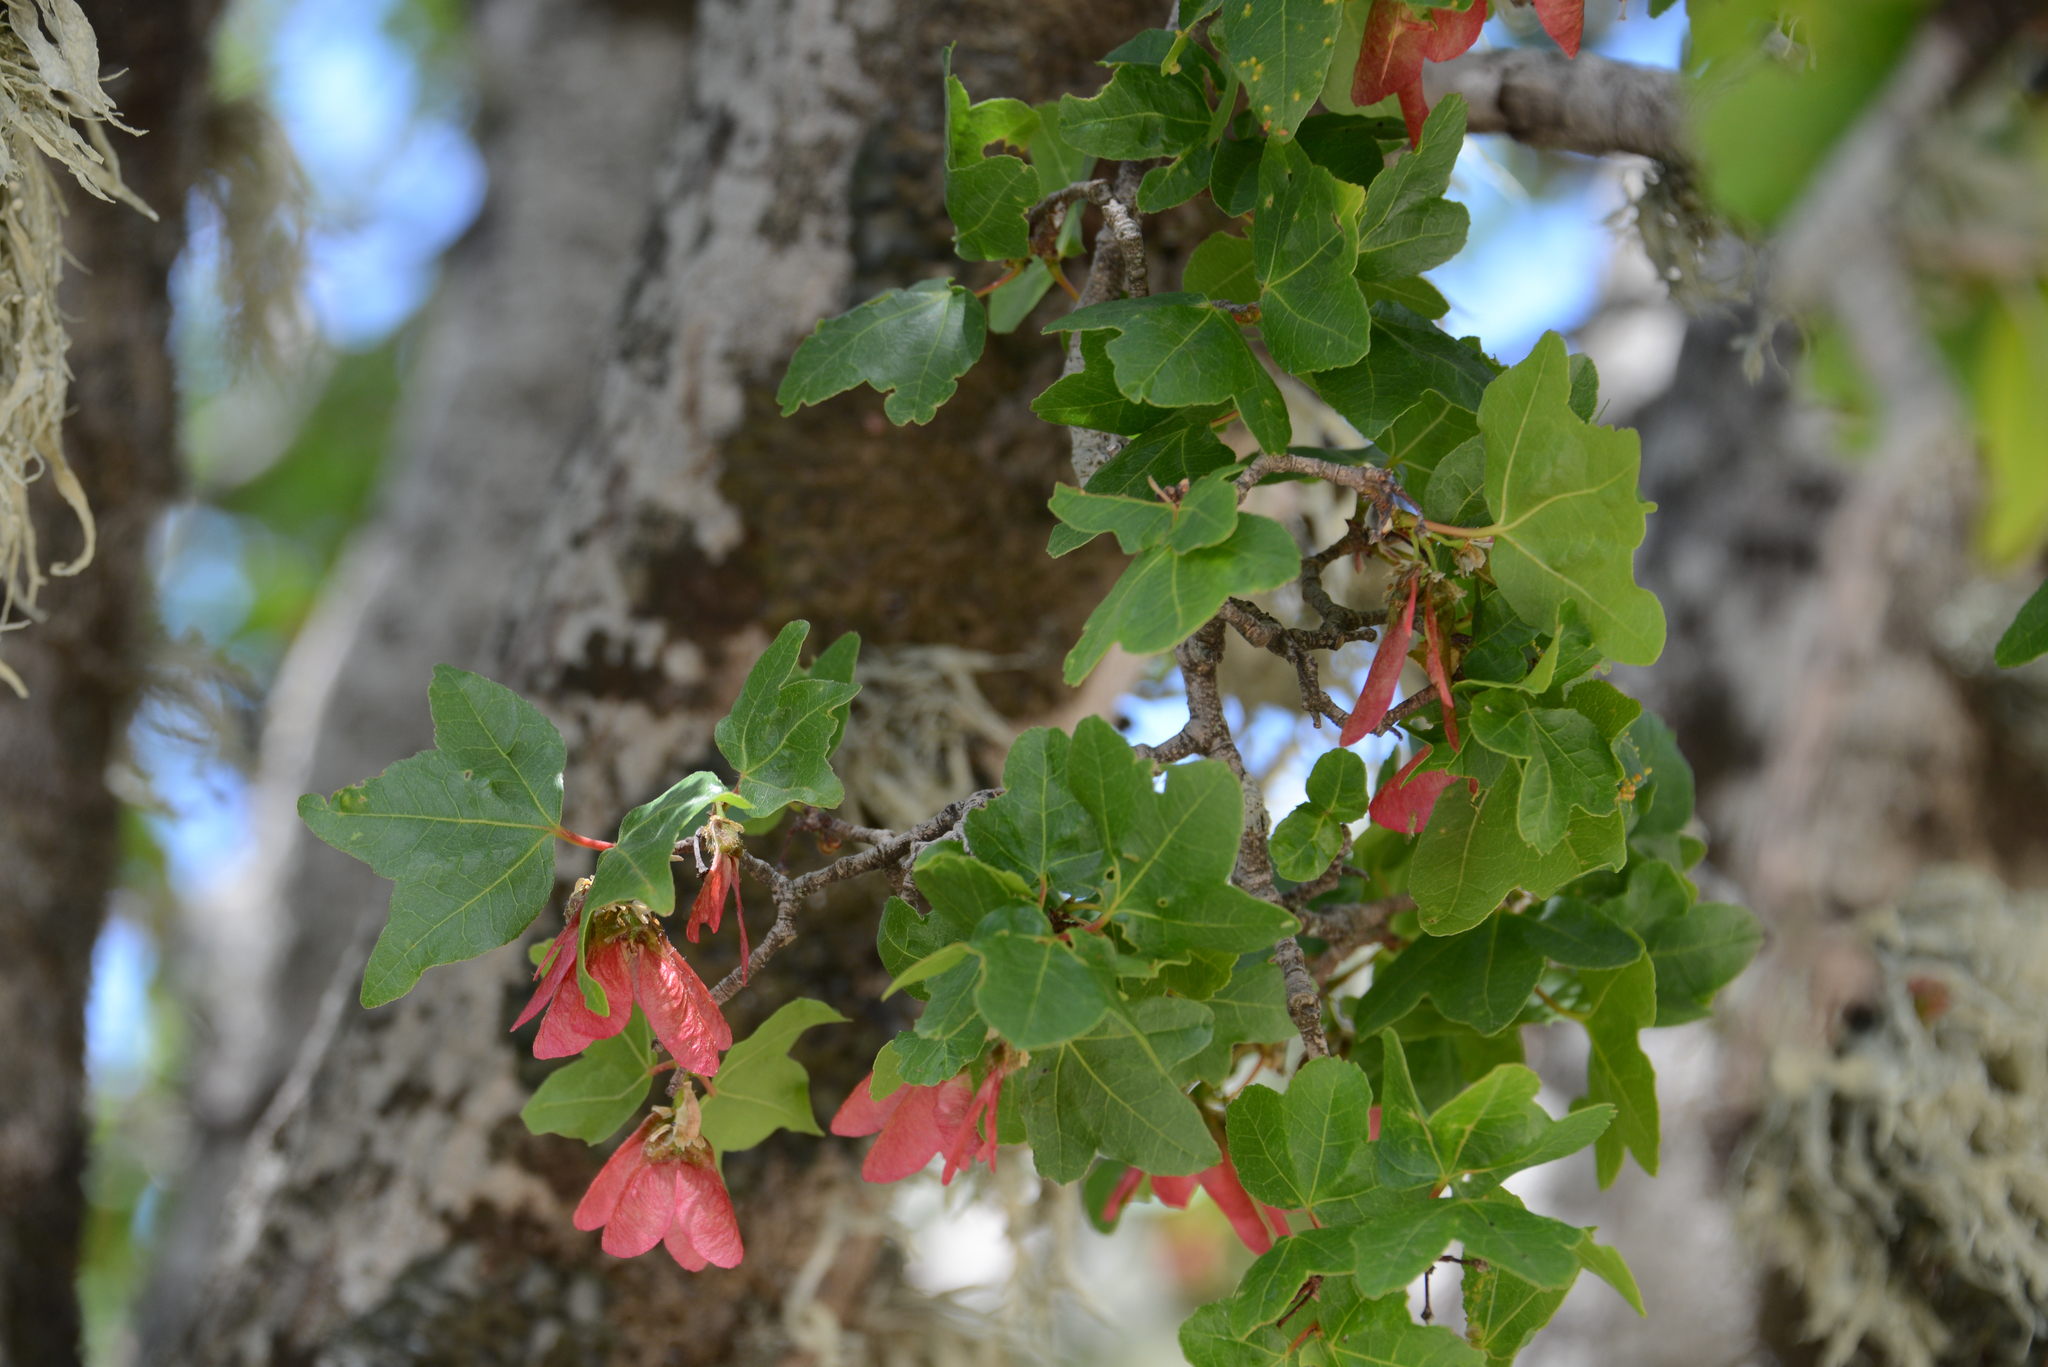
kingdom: Plantae
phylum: Tracheophyta
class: Magnoliopsida
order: Sapindales
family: Sapindaceae
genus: Acer
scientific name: Acer sempervirens
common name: Cretan maple
